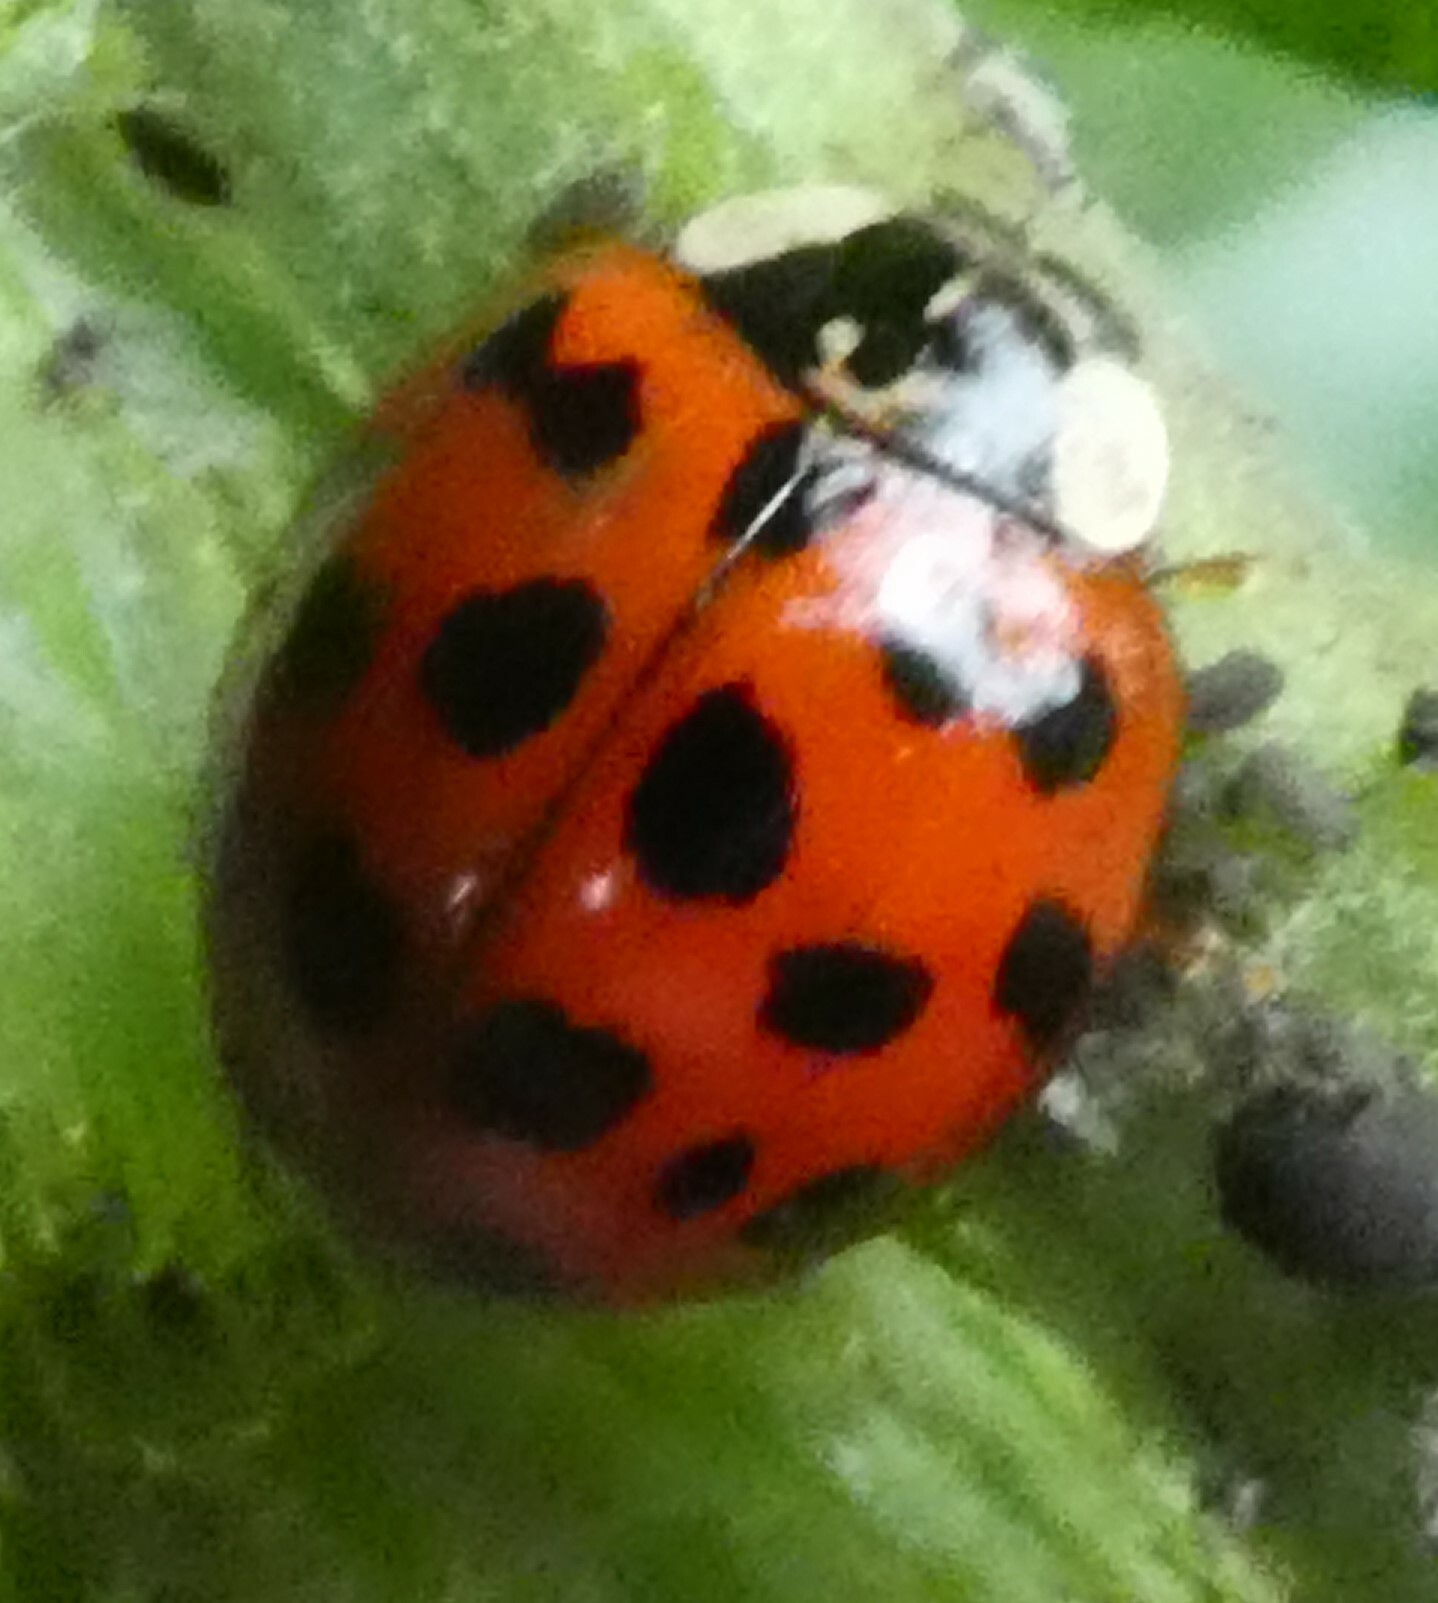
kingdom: Animalia
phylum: Arthropoda
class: Insecta
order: Coleoptera
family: Coccinellidae
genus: Harmonia
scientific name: Harmonia axyridis
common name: Harlequin ladybird
